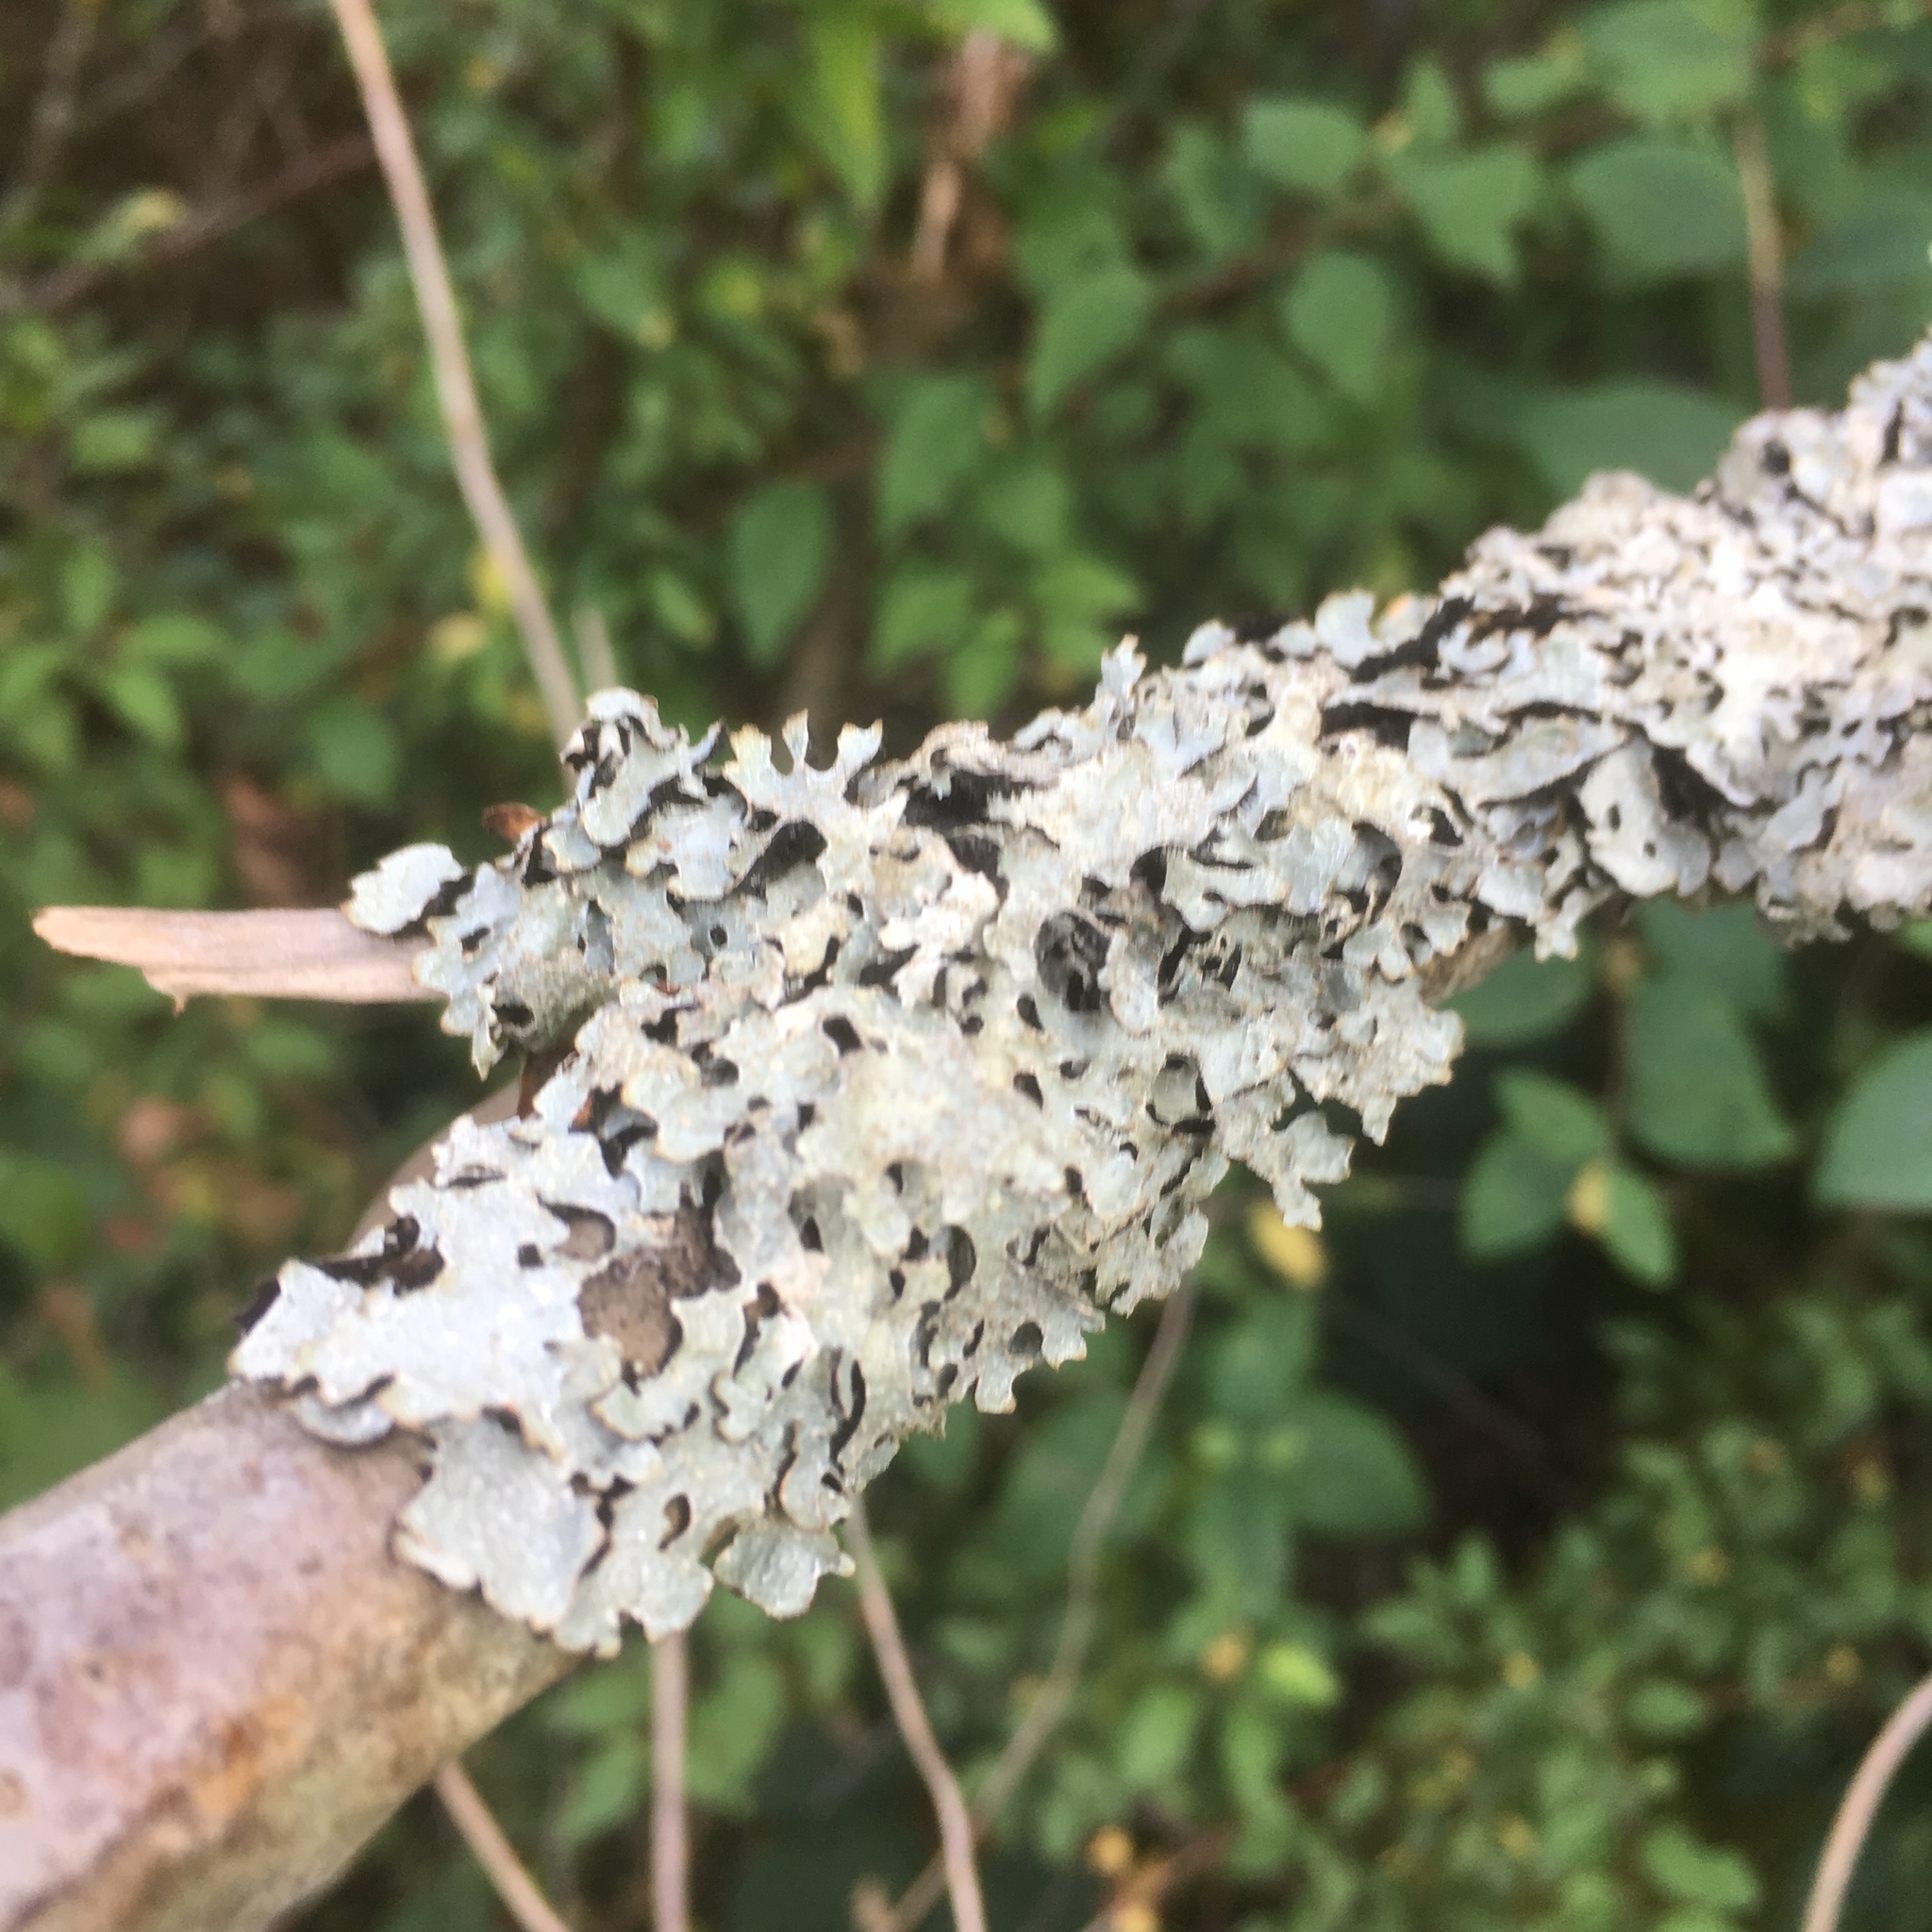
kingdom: Fungi
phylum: Ascomycota
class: Lecanoromycetes
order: Lecanorales
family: Parmeliaceae
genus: Parmelia
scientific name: Parmelia sulcata
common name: Netted shield lichen
